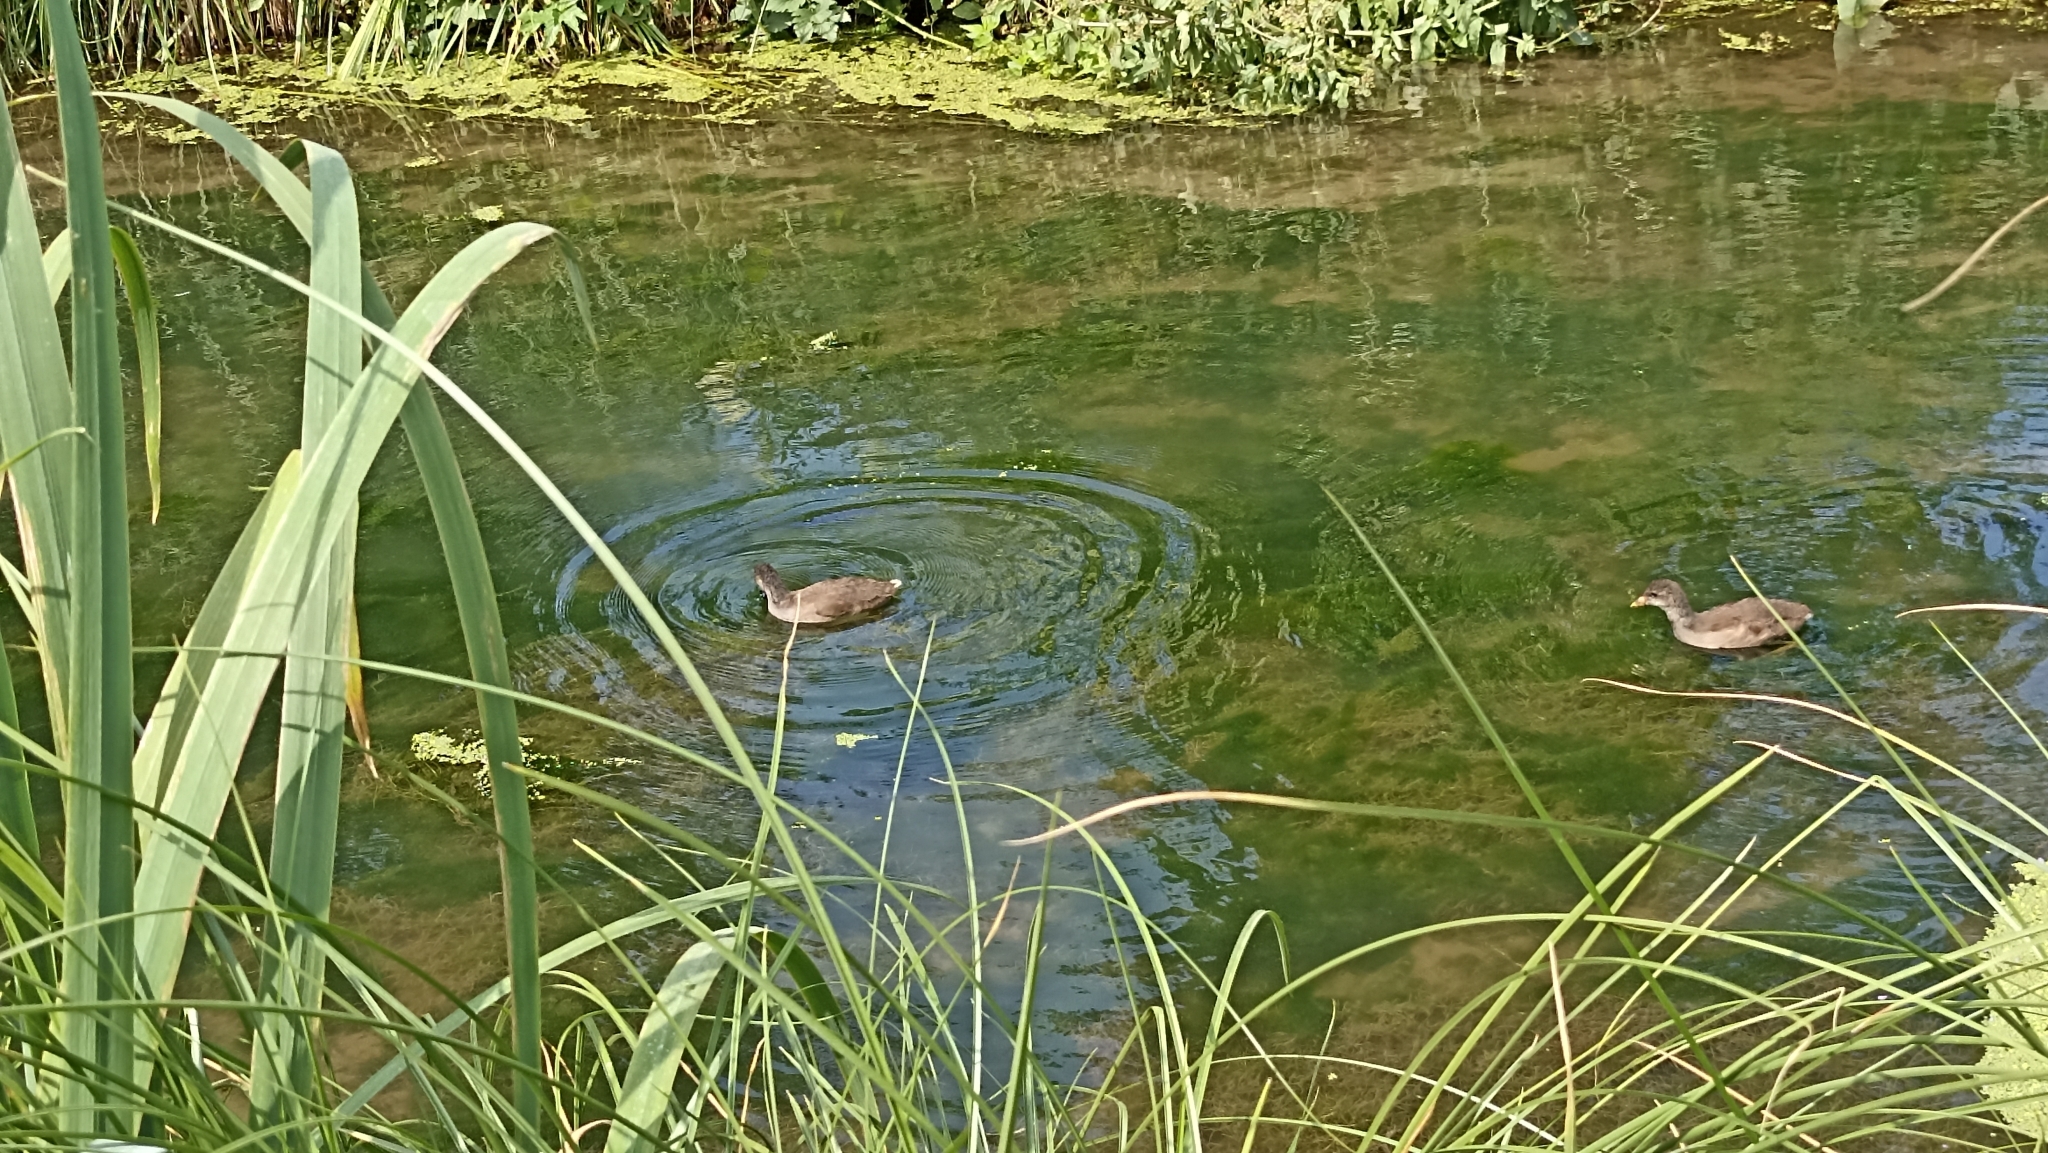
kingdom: Animalia
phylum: Chordata
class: Aves
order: Gruiformes
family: Rallidae
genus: Gallinula
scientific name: Gallinula chloropus
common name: Common moorhen
